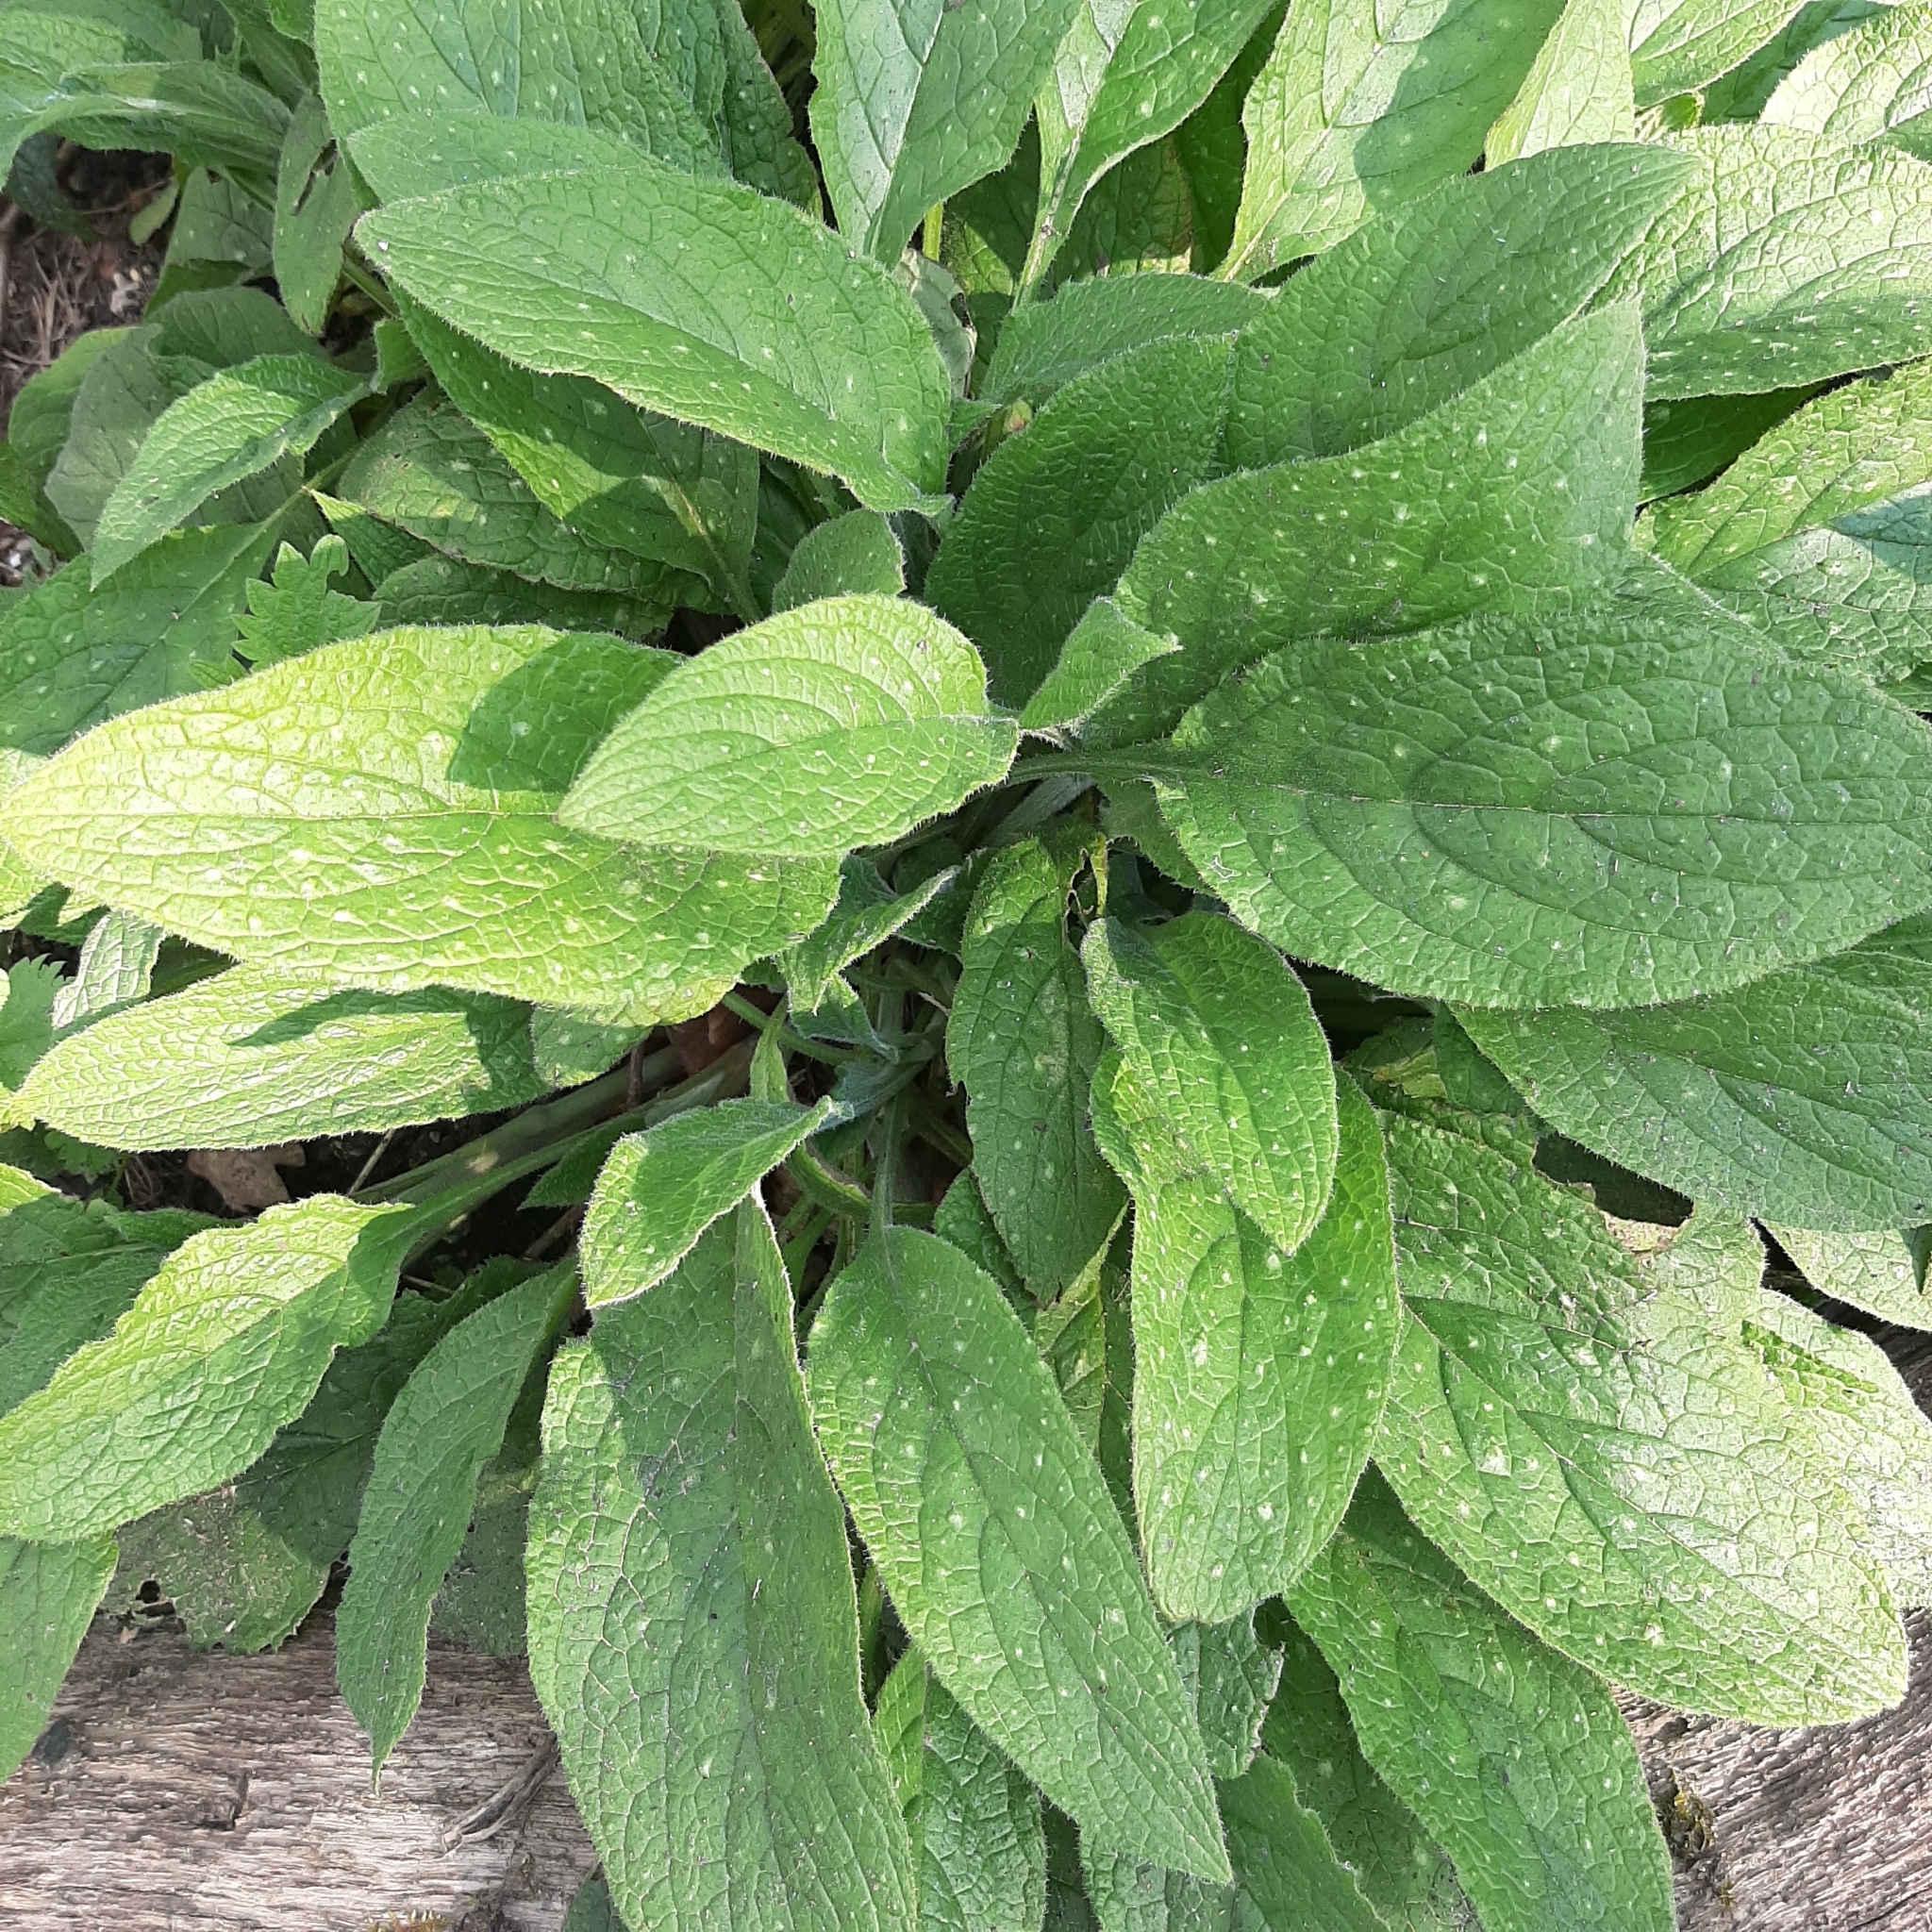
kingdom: Plantae
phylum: Tracheophyta
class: Magnoliopsida
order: Boraginales
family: Boraginaceae
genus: Pentaglottis
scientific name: Pentaglottis sempervirens
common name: Green alkanet
